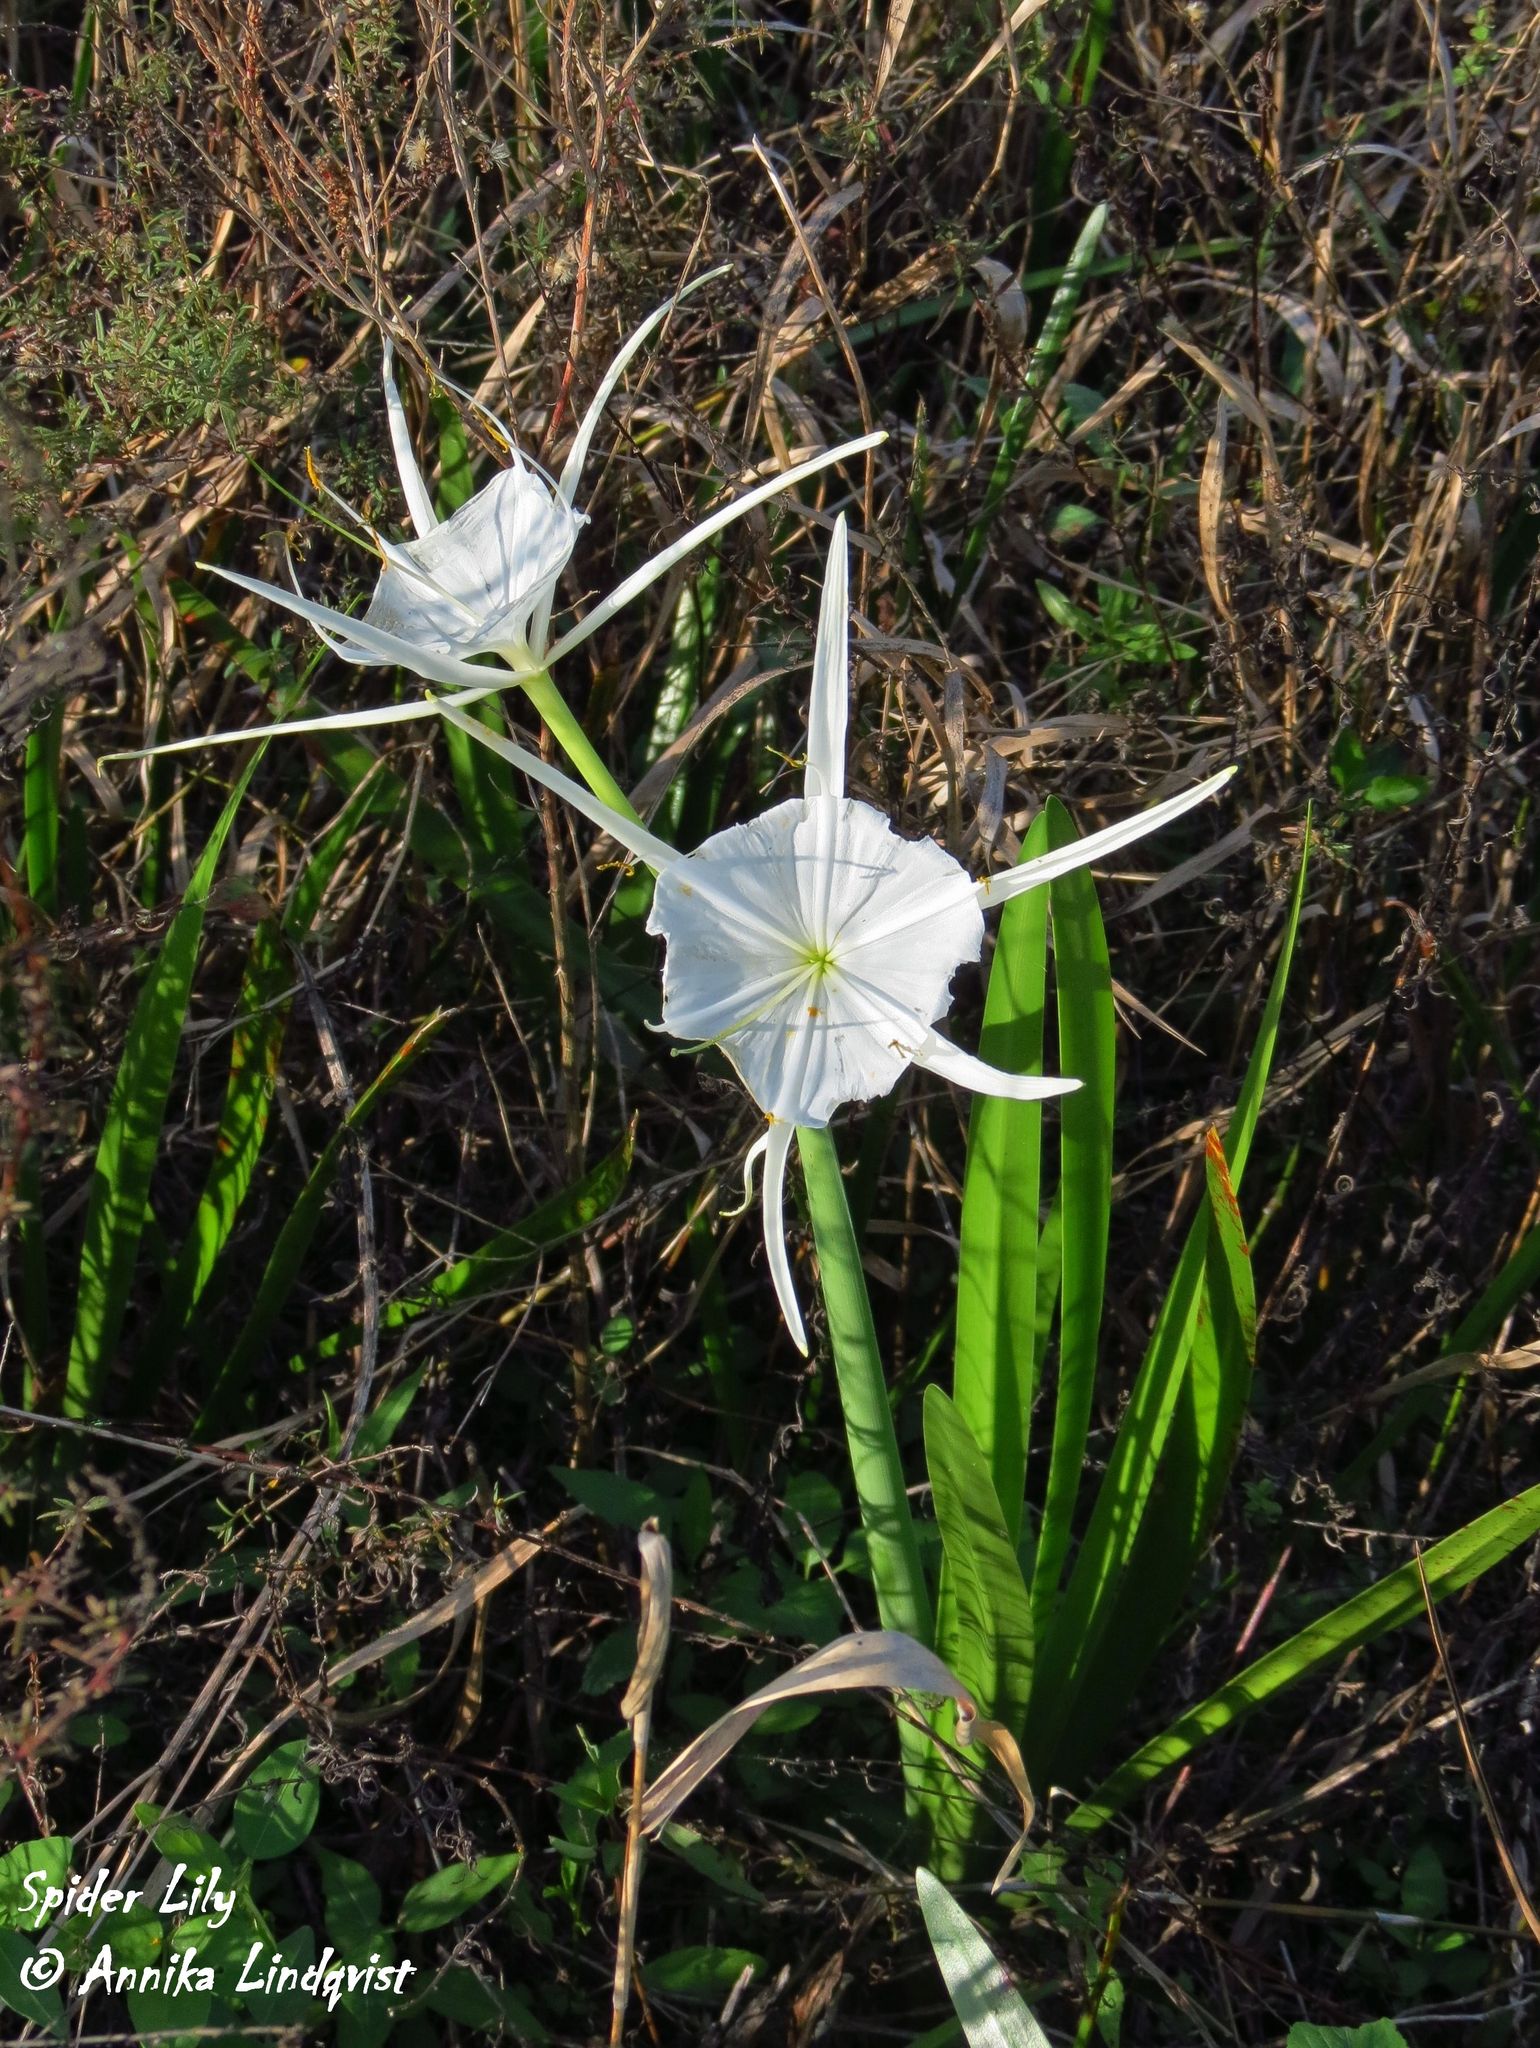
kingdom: Plantae
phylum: Tracheophyta
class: Liliopsida
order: Asparagales
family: Amaryllidaceae
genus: Hymenocallis
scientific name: Hymenocallis palmeri
